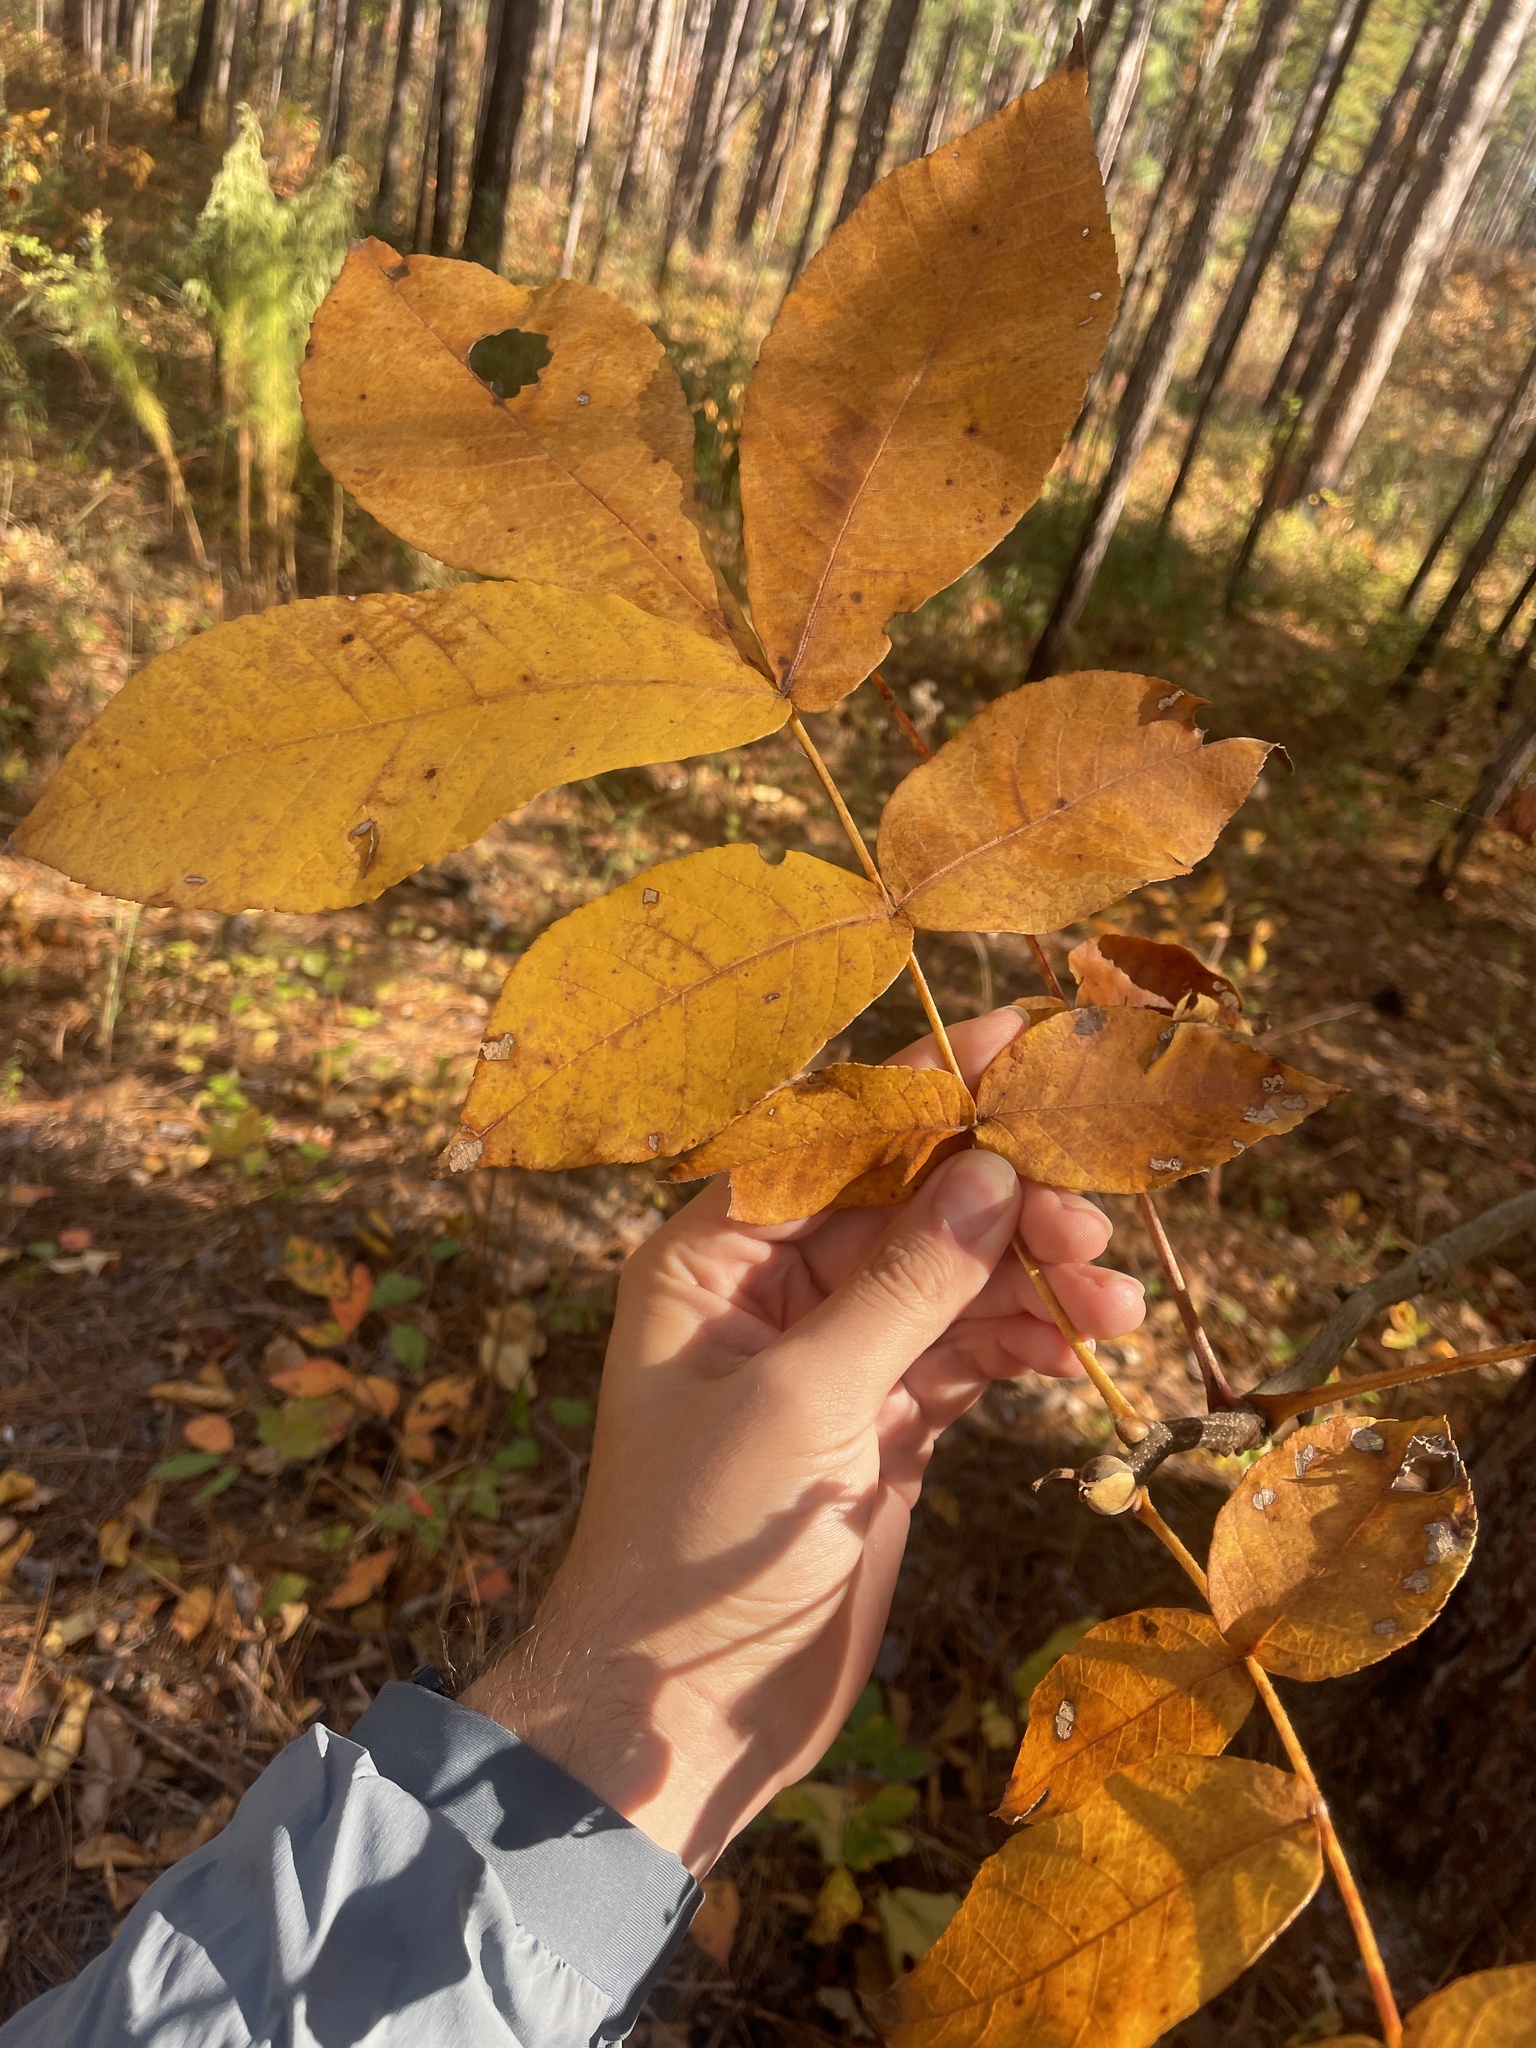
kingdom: Plantae
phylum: Tracheophyta
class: Magnoliopsida
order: Fagales
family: Juglandaceae
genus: Carya
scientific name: Carya alba
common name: Mockernut hickory
